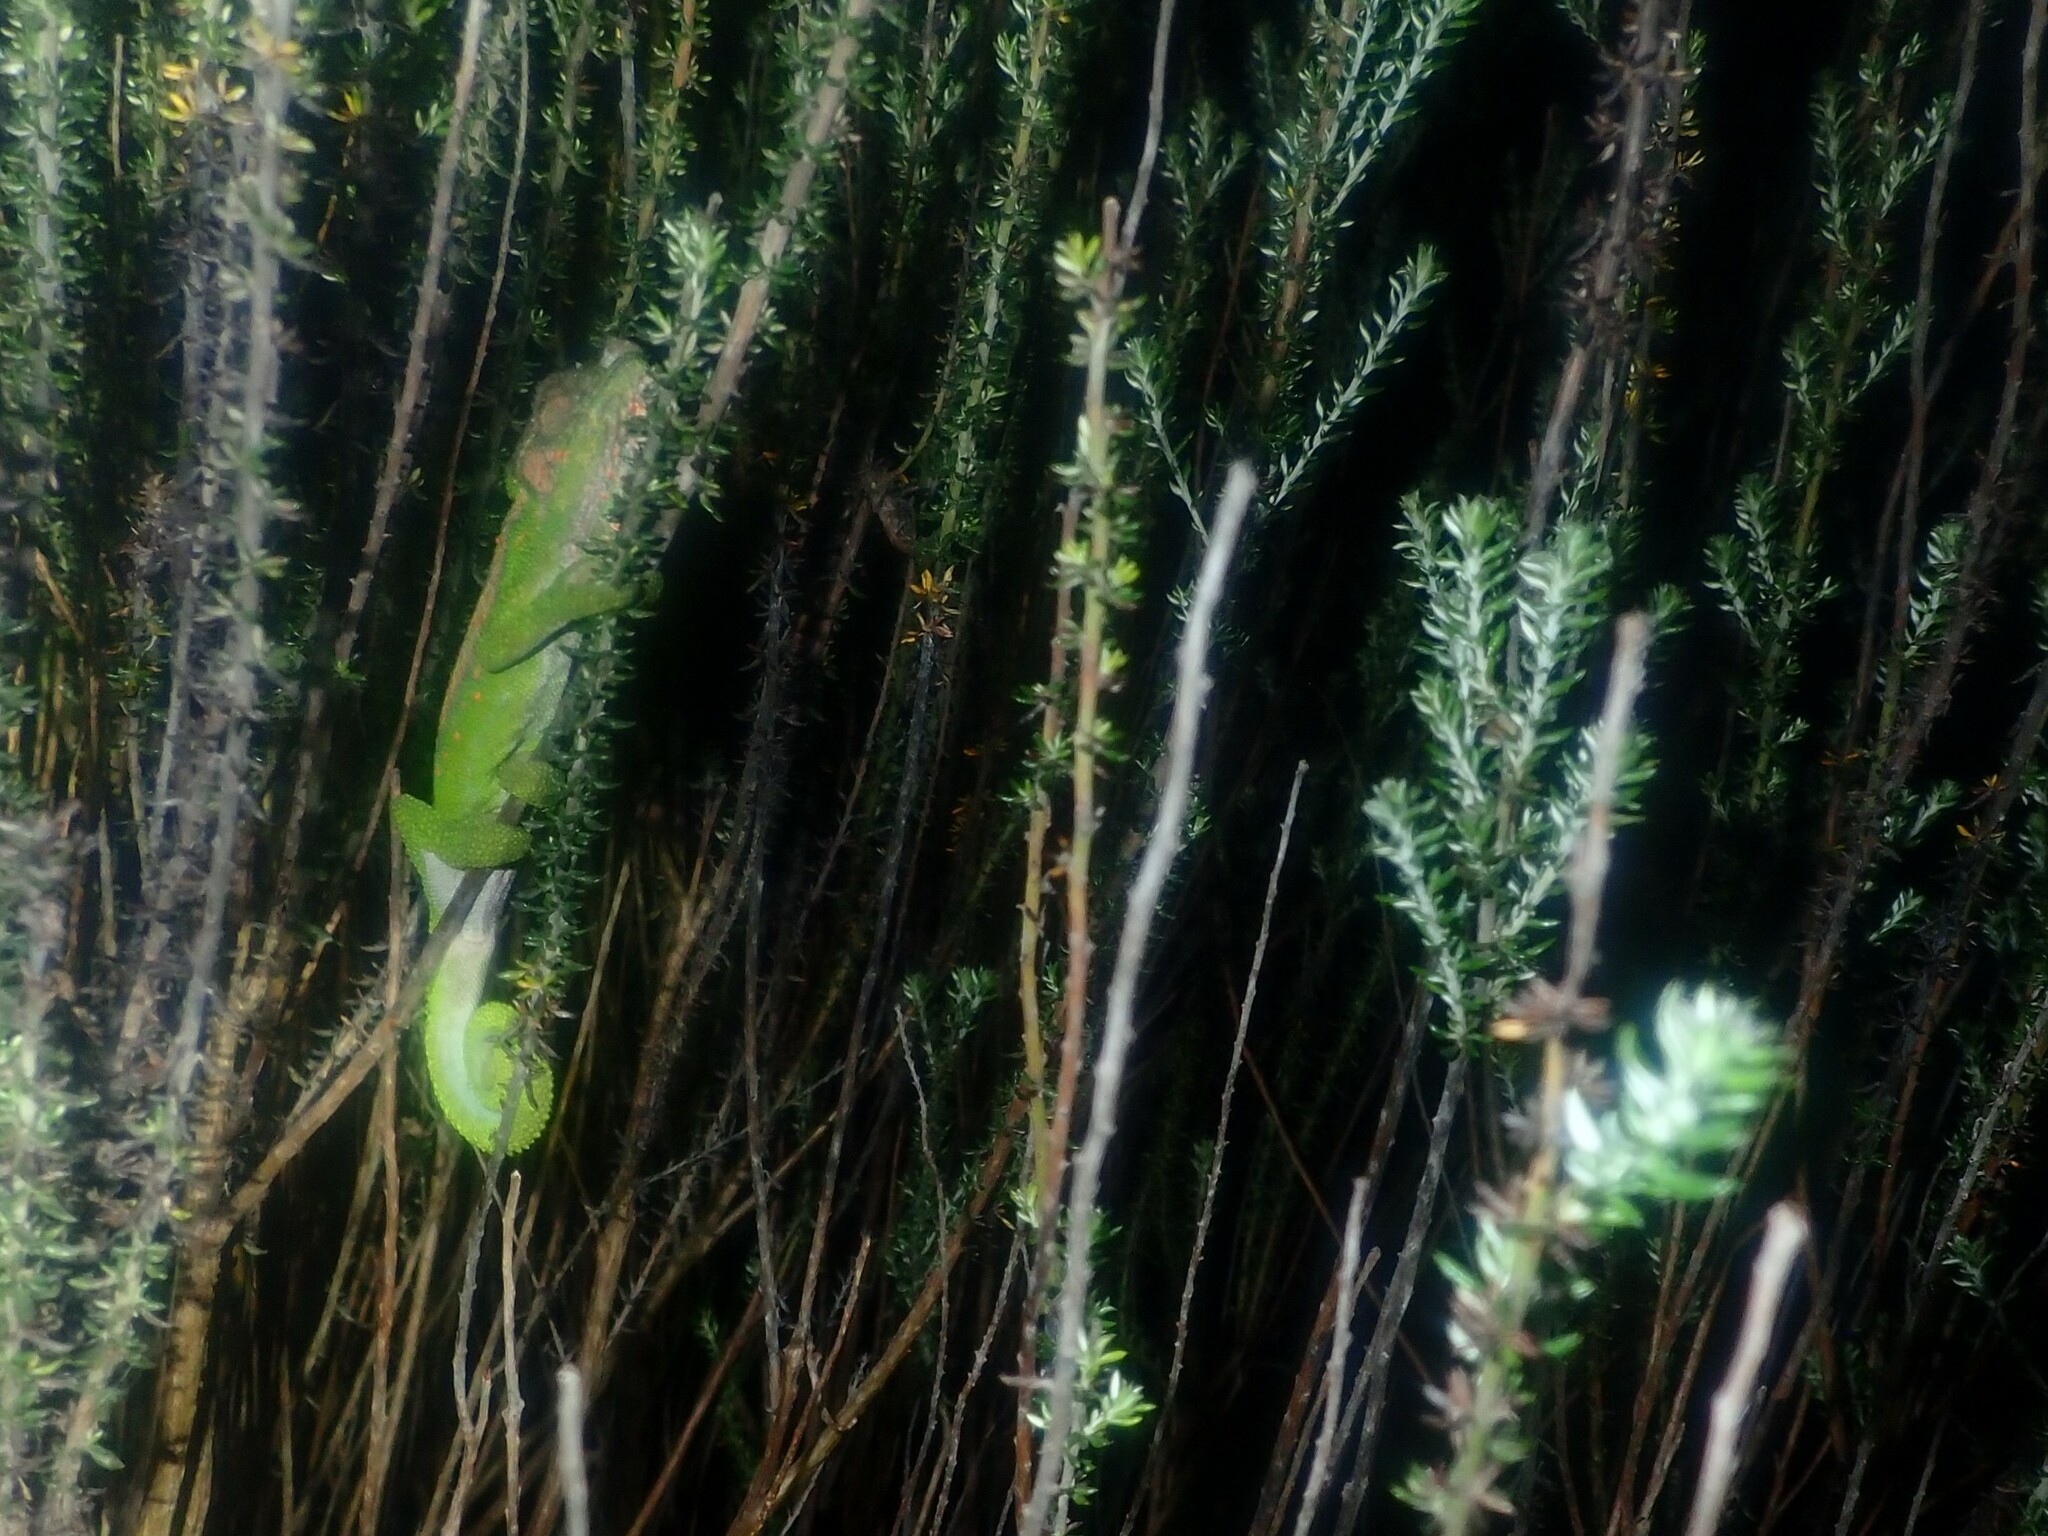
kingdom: Animalia
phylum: Chordata
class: Squamata
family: Chamaeleonidae
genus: Bradypodion
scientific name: Bradypodion pumilum
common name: Cape dwarf chameleon
